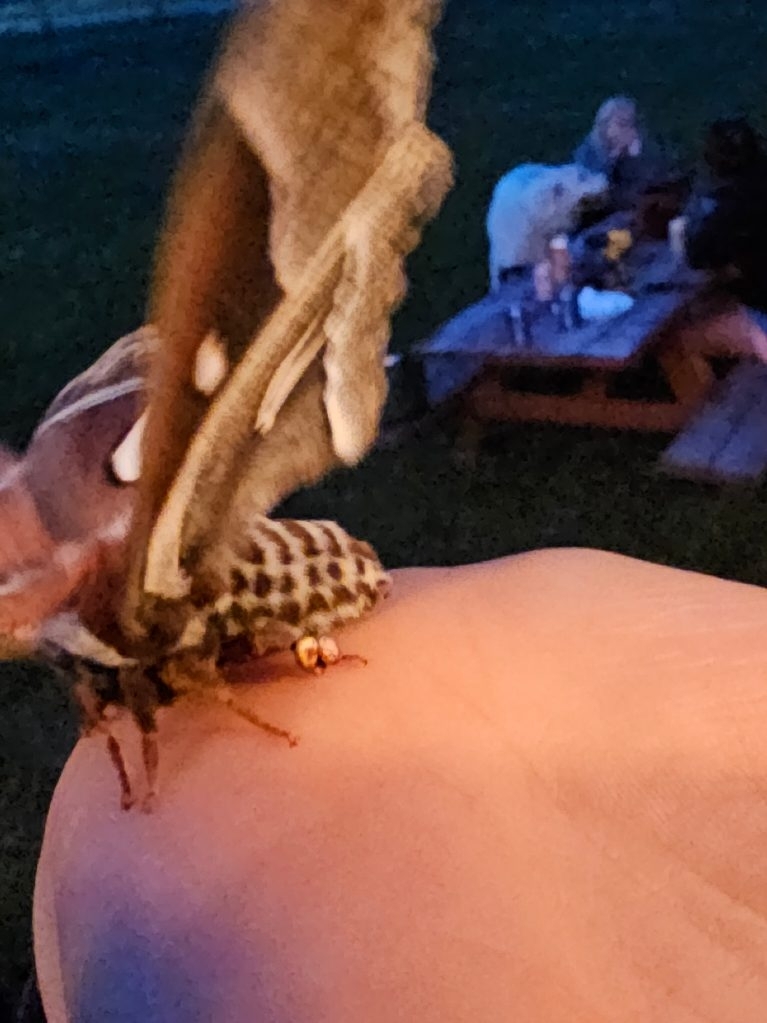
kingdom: Animalia
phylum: Arthropoda
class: Insecta
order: Lepidoptera
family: Saturniidae
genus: Hyalophora
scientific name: Hyalophora euryalus
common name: Ceanothus silkmoth
